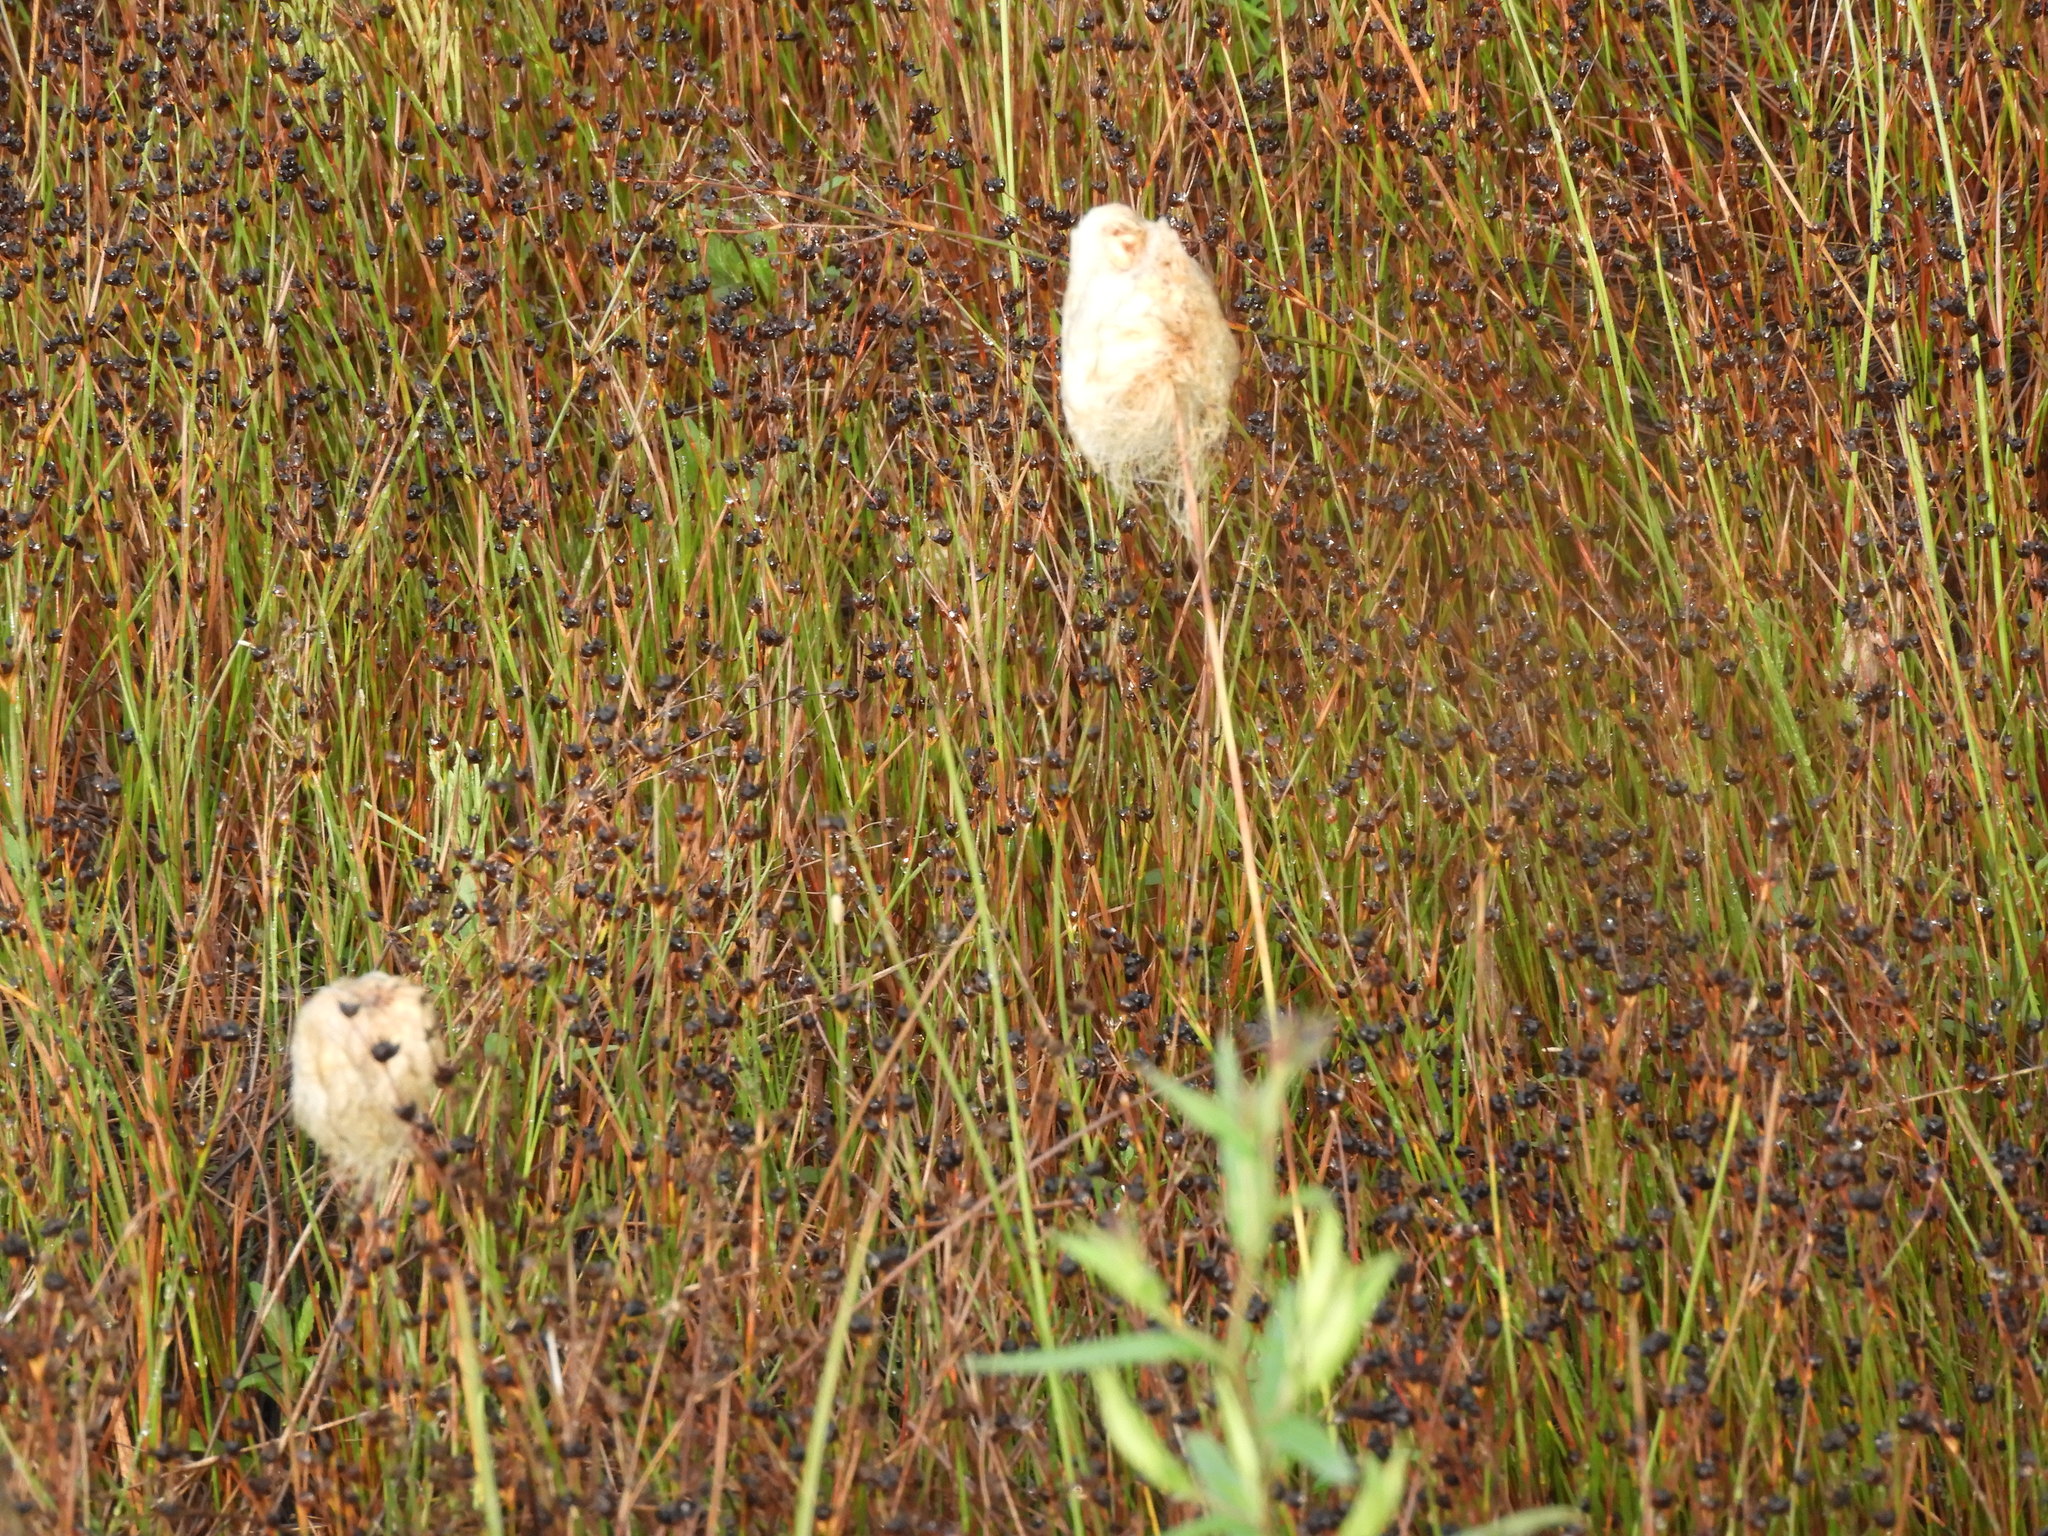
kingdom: Plantae
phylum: Tracheophyta
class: Liliopsida
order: Poales
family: Cyperaceae
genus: Eriophorum
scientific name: Eriophorum chamissonis
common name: Chamisso's cottongrass
